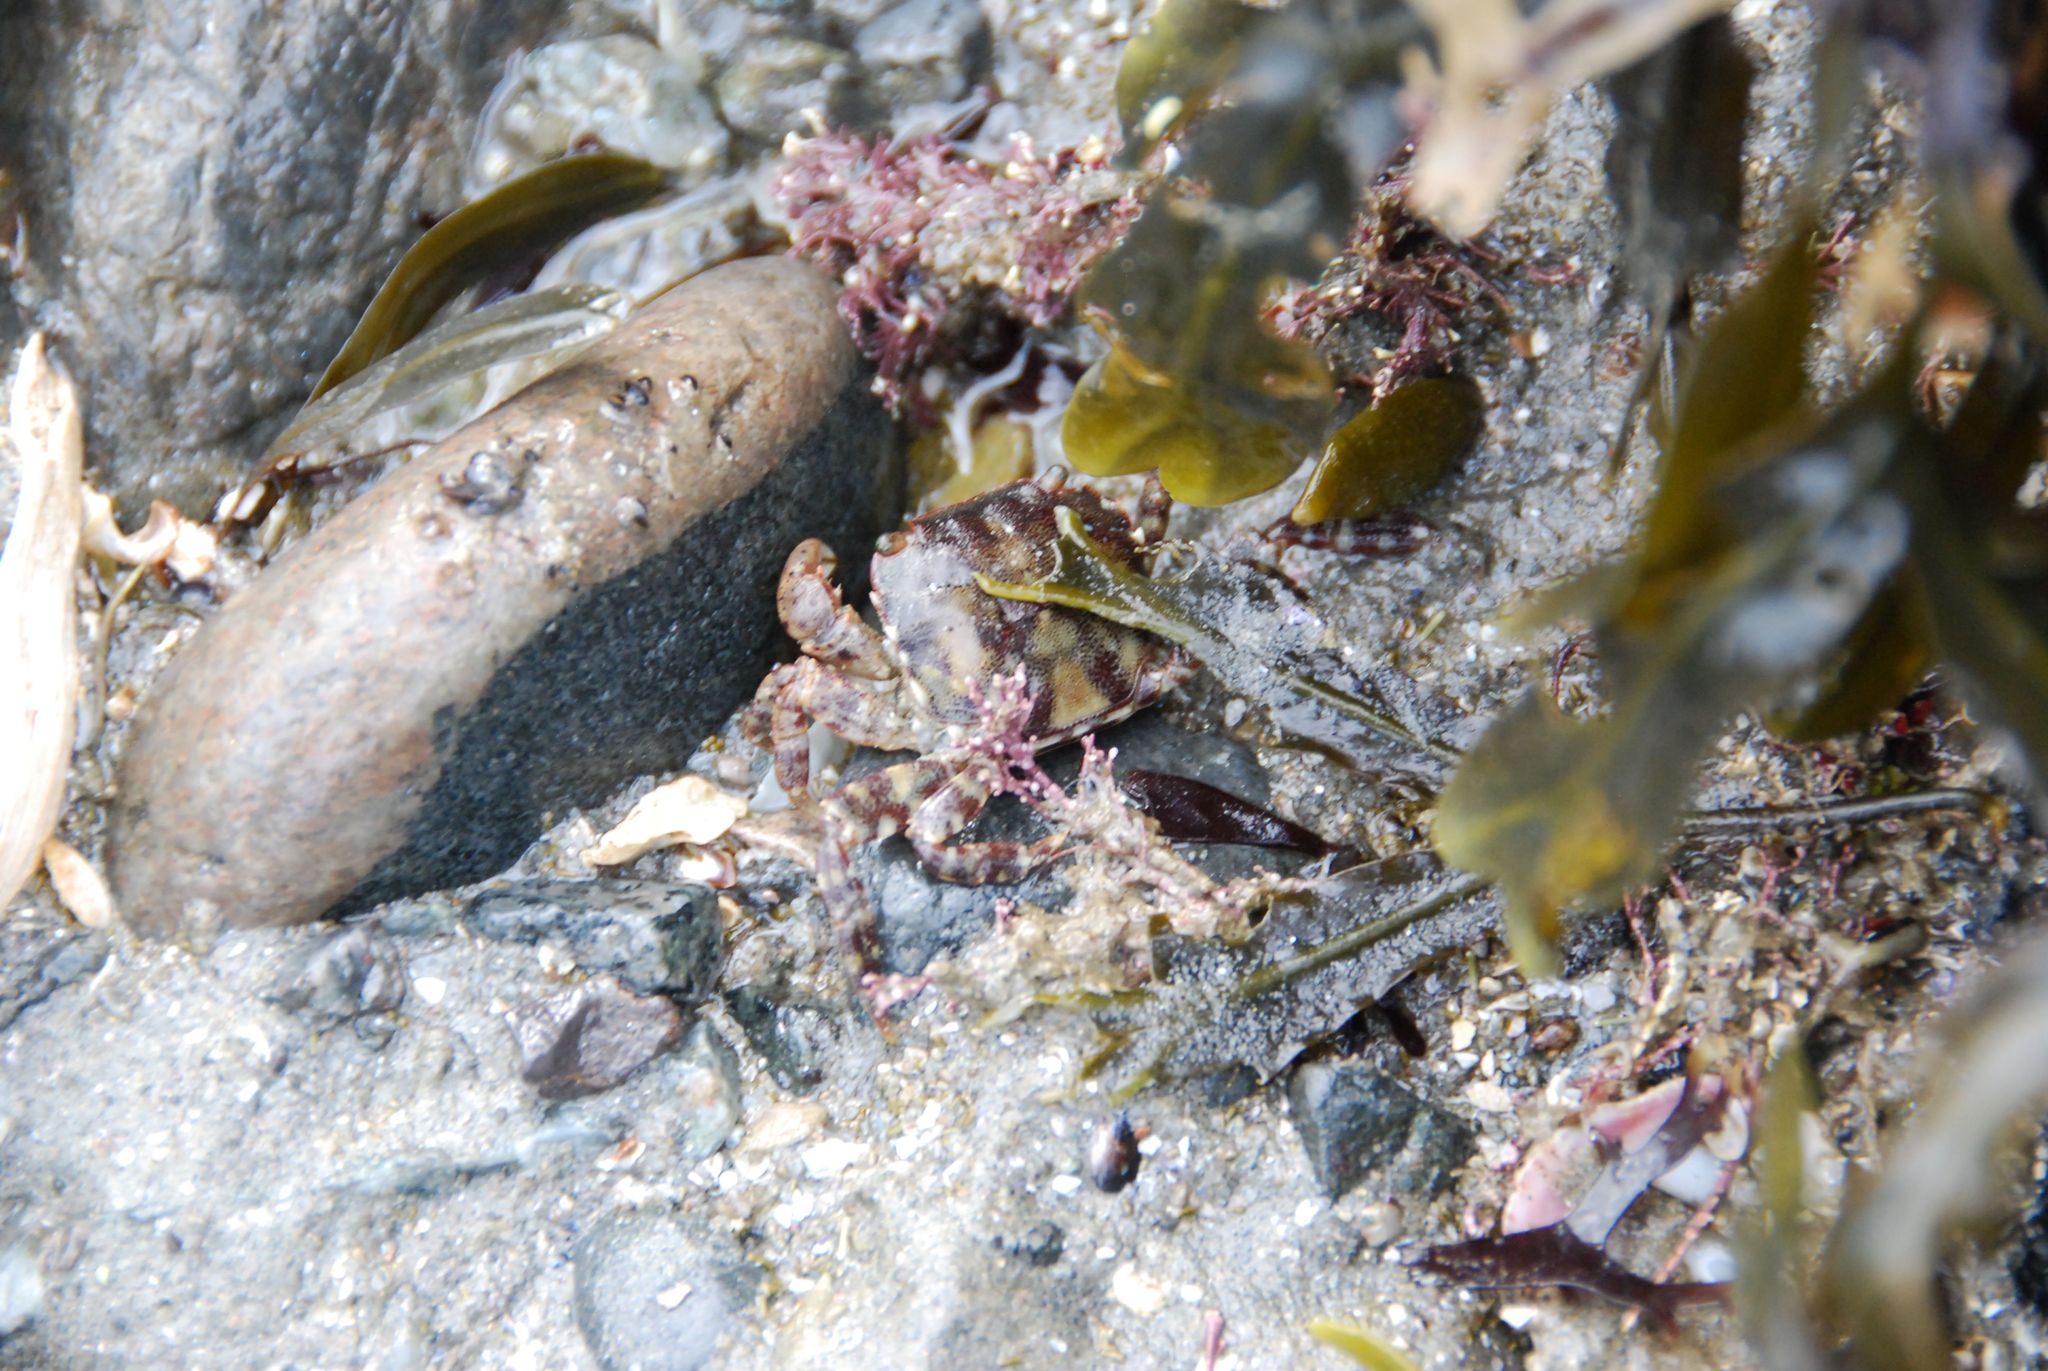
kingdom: Animalia
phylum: Arthropoda
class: Malacostraca
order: Decapoda
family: Varunidae
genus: Hemigrapsus
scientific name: Hemigrapsus sanguineus
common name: Asian shore crab
